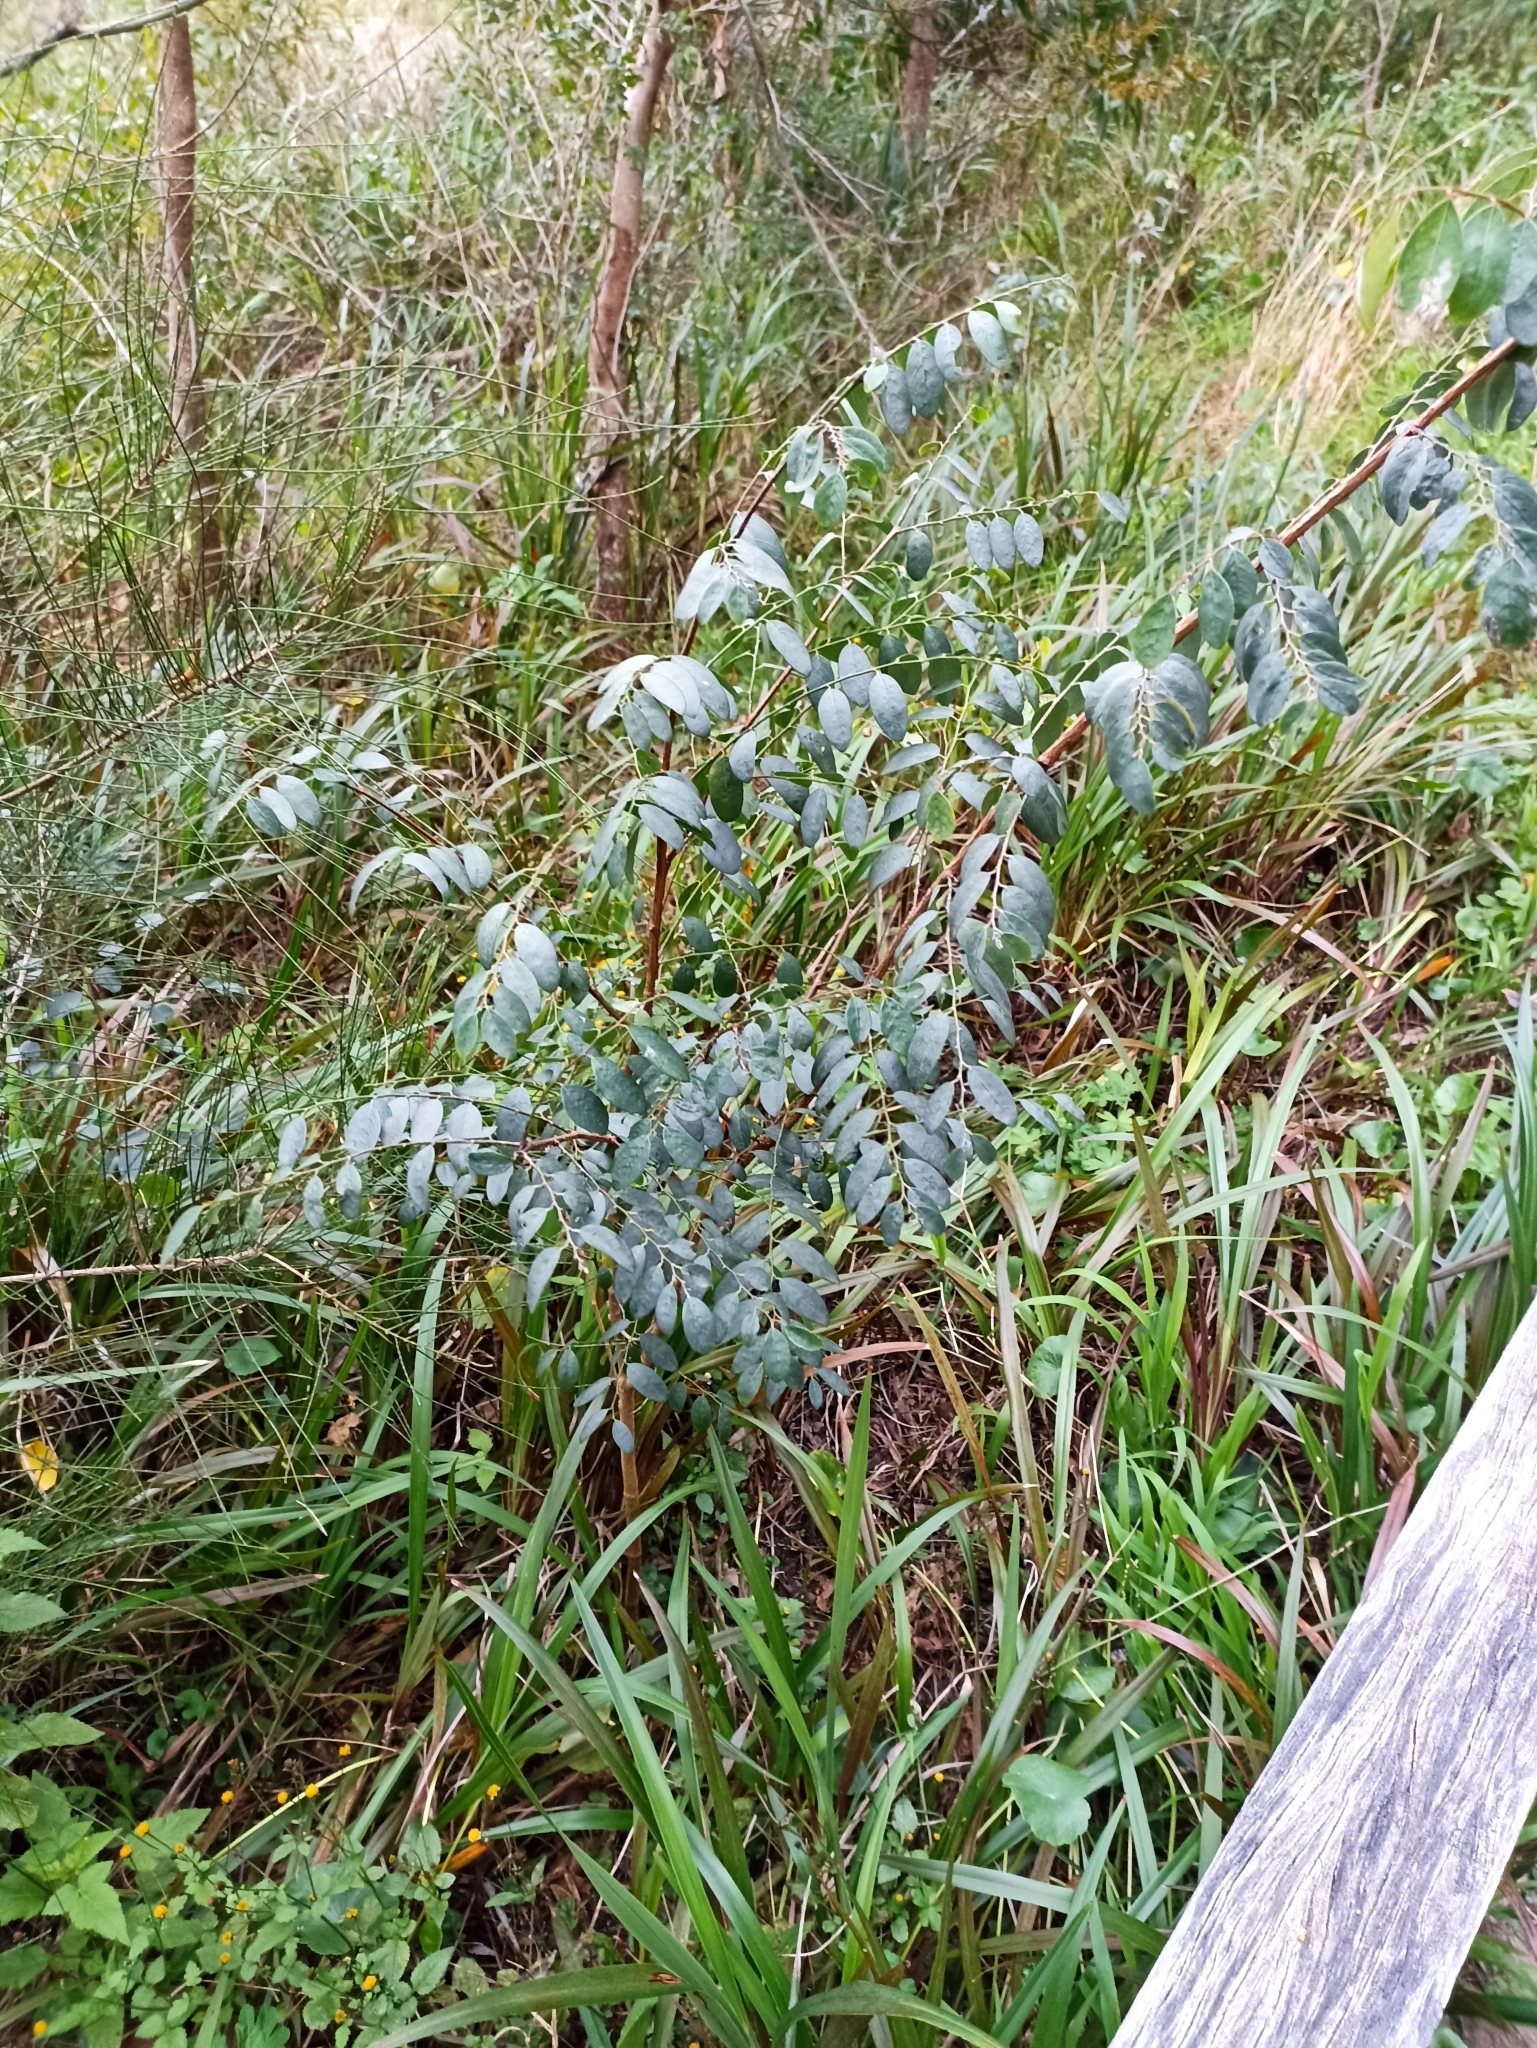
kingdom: Plantae
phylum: Tracheophyta
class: Magnoliopsida
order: Malpighiales
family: Phyllanthaceae
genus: Breynia
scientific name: Breynia oblongifolia
